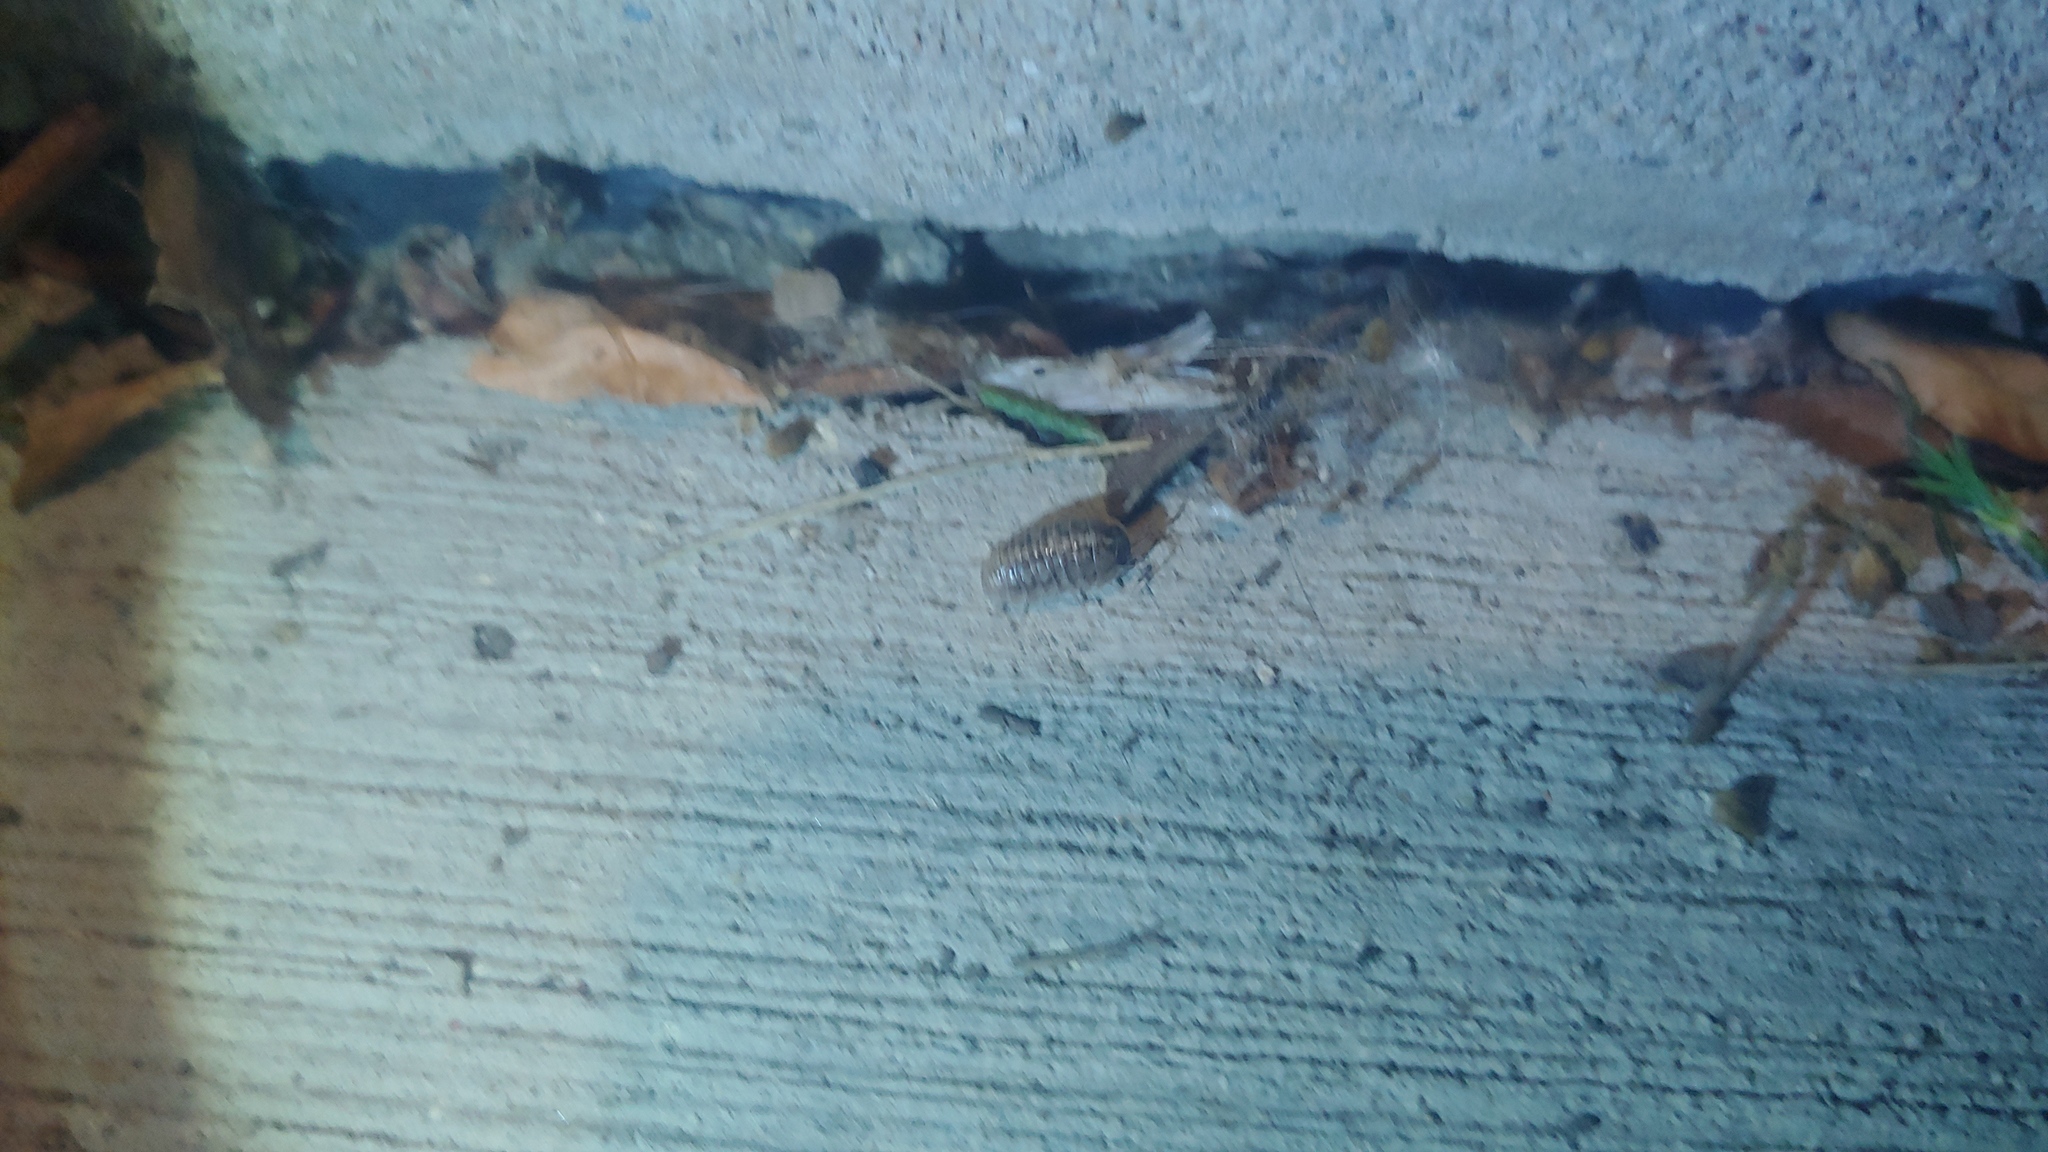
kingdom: Animalia
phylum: Arthropoda
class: Malacostraca
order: Isopoda
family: Armadillidiidae
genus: Armadillidium
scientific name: Armadillidium vulgare
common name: Common pill woodlouse
